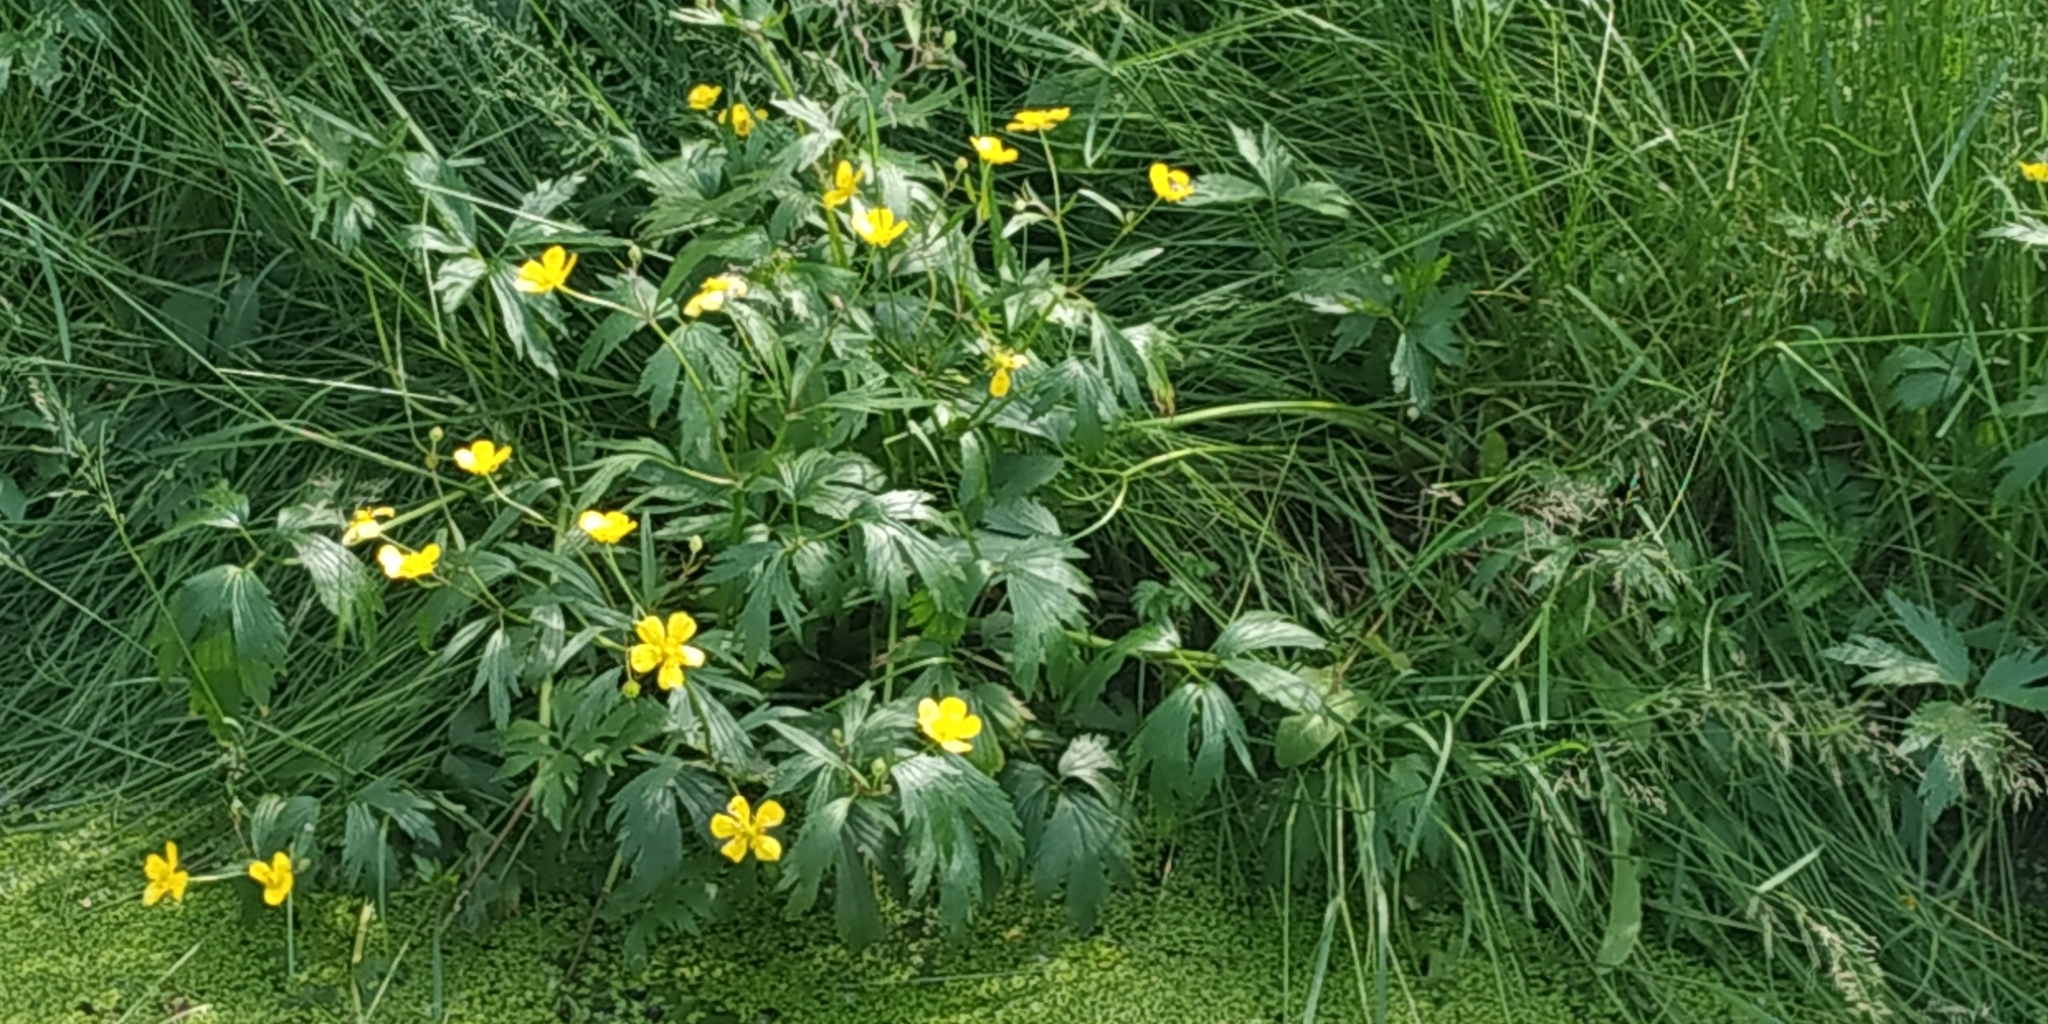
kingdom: Plantae
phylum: Tracheophyta
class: Magnoliopsida
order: Ranunculales
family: Ranunculaceae
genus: Ranunculus
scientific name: Ranunculus repens
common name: Creeping buttercup
